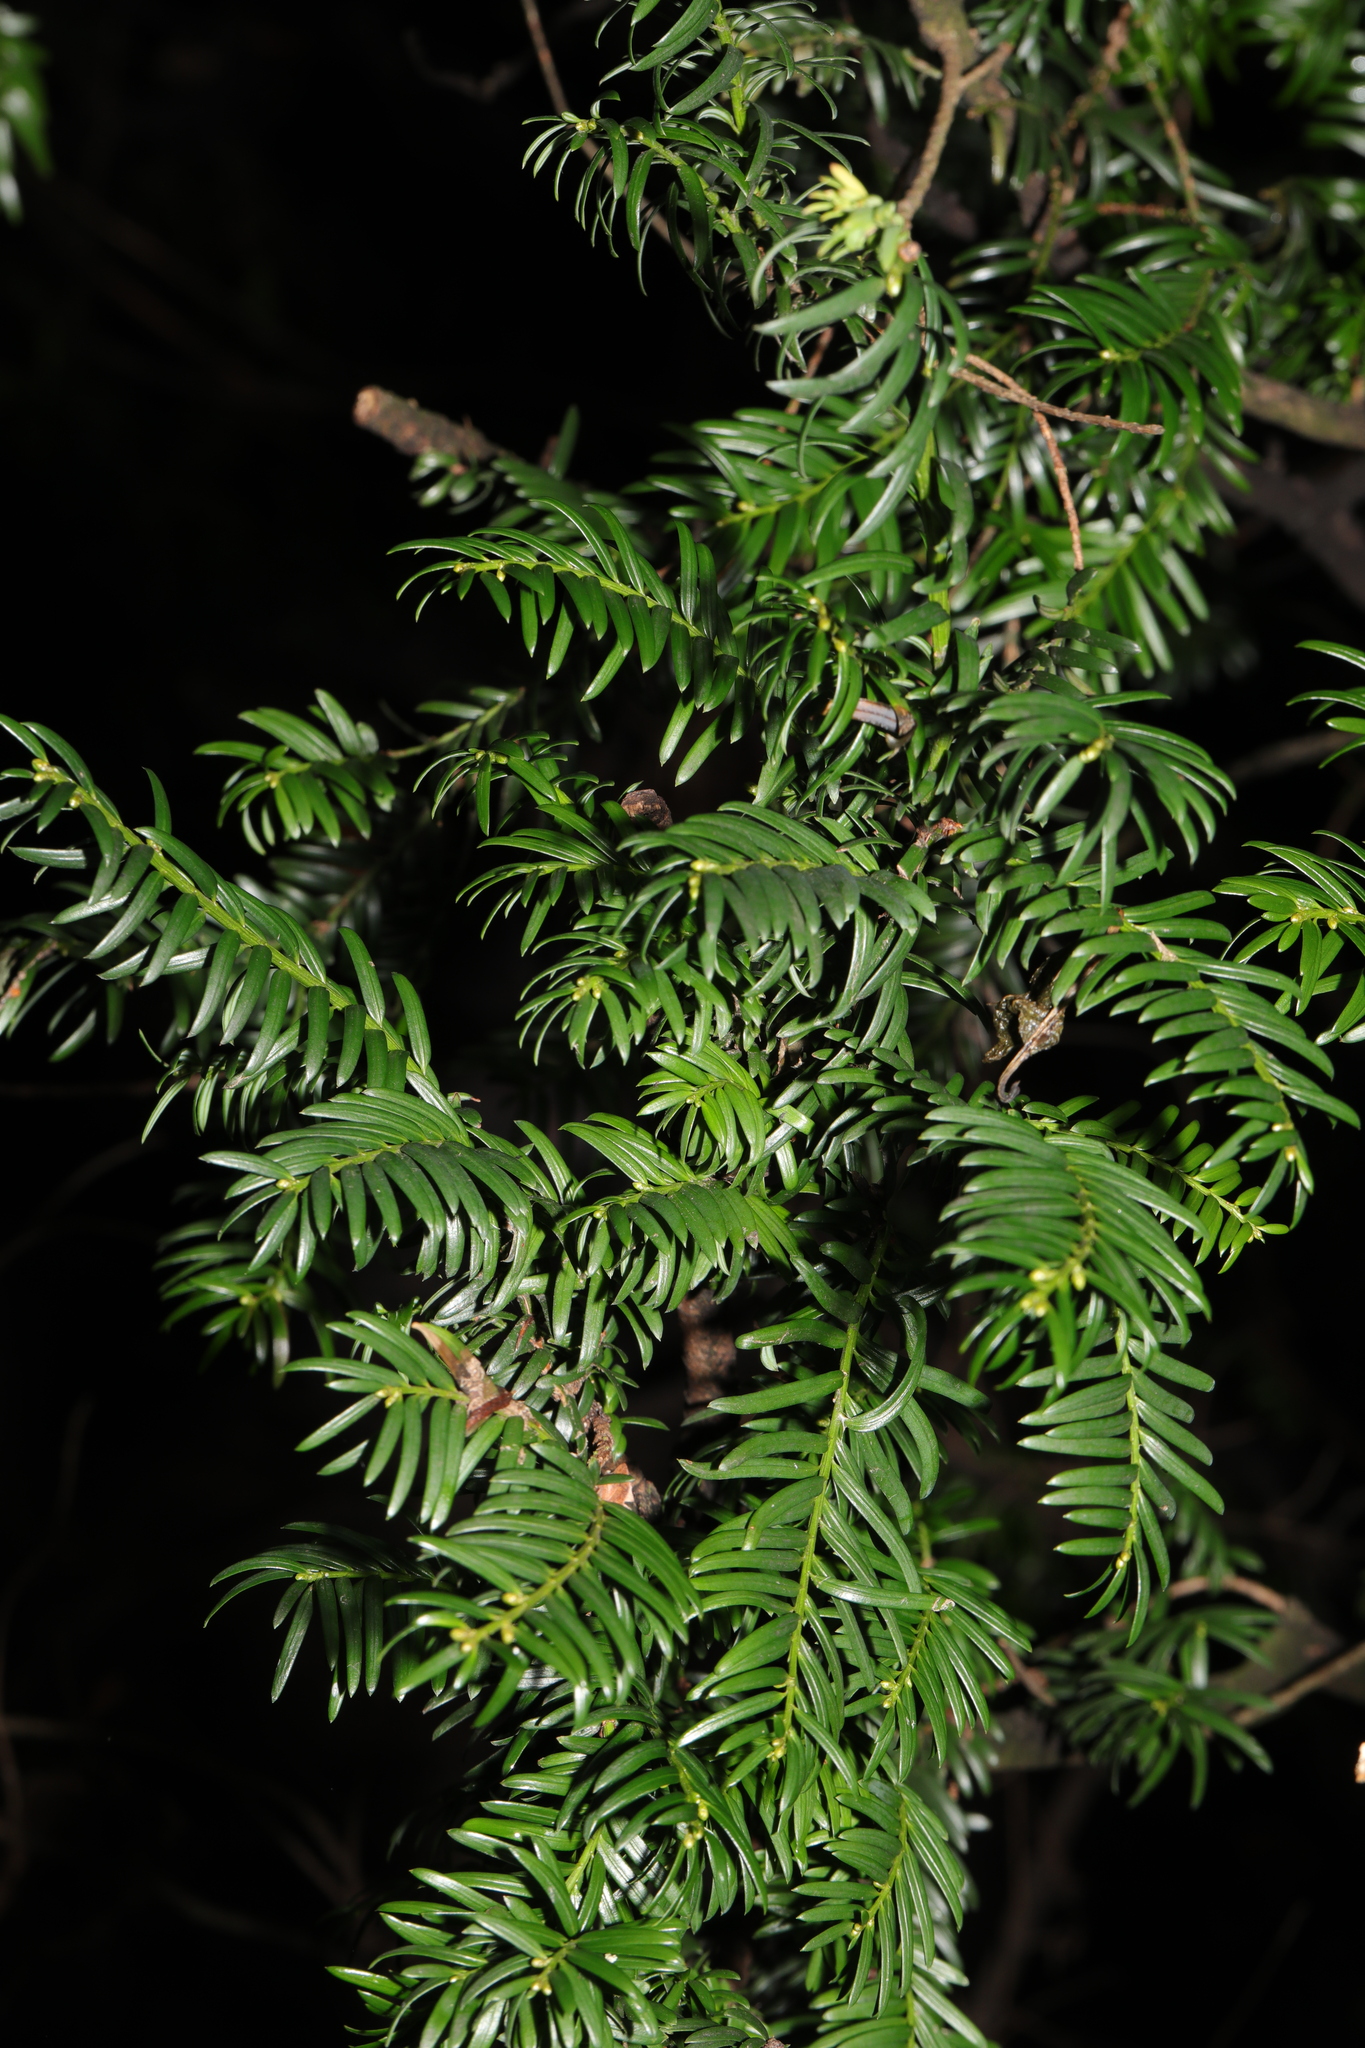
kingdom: Plantae
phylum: Tracheophyta
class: Pinopsida
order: Pinales
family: Taxaceae
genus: Taxus
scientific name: Taxus baccata
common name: Yew
